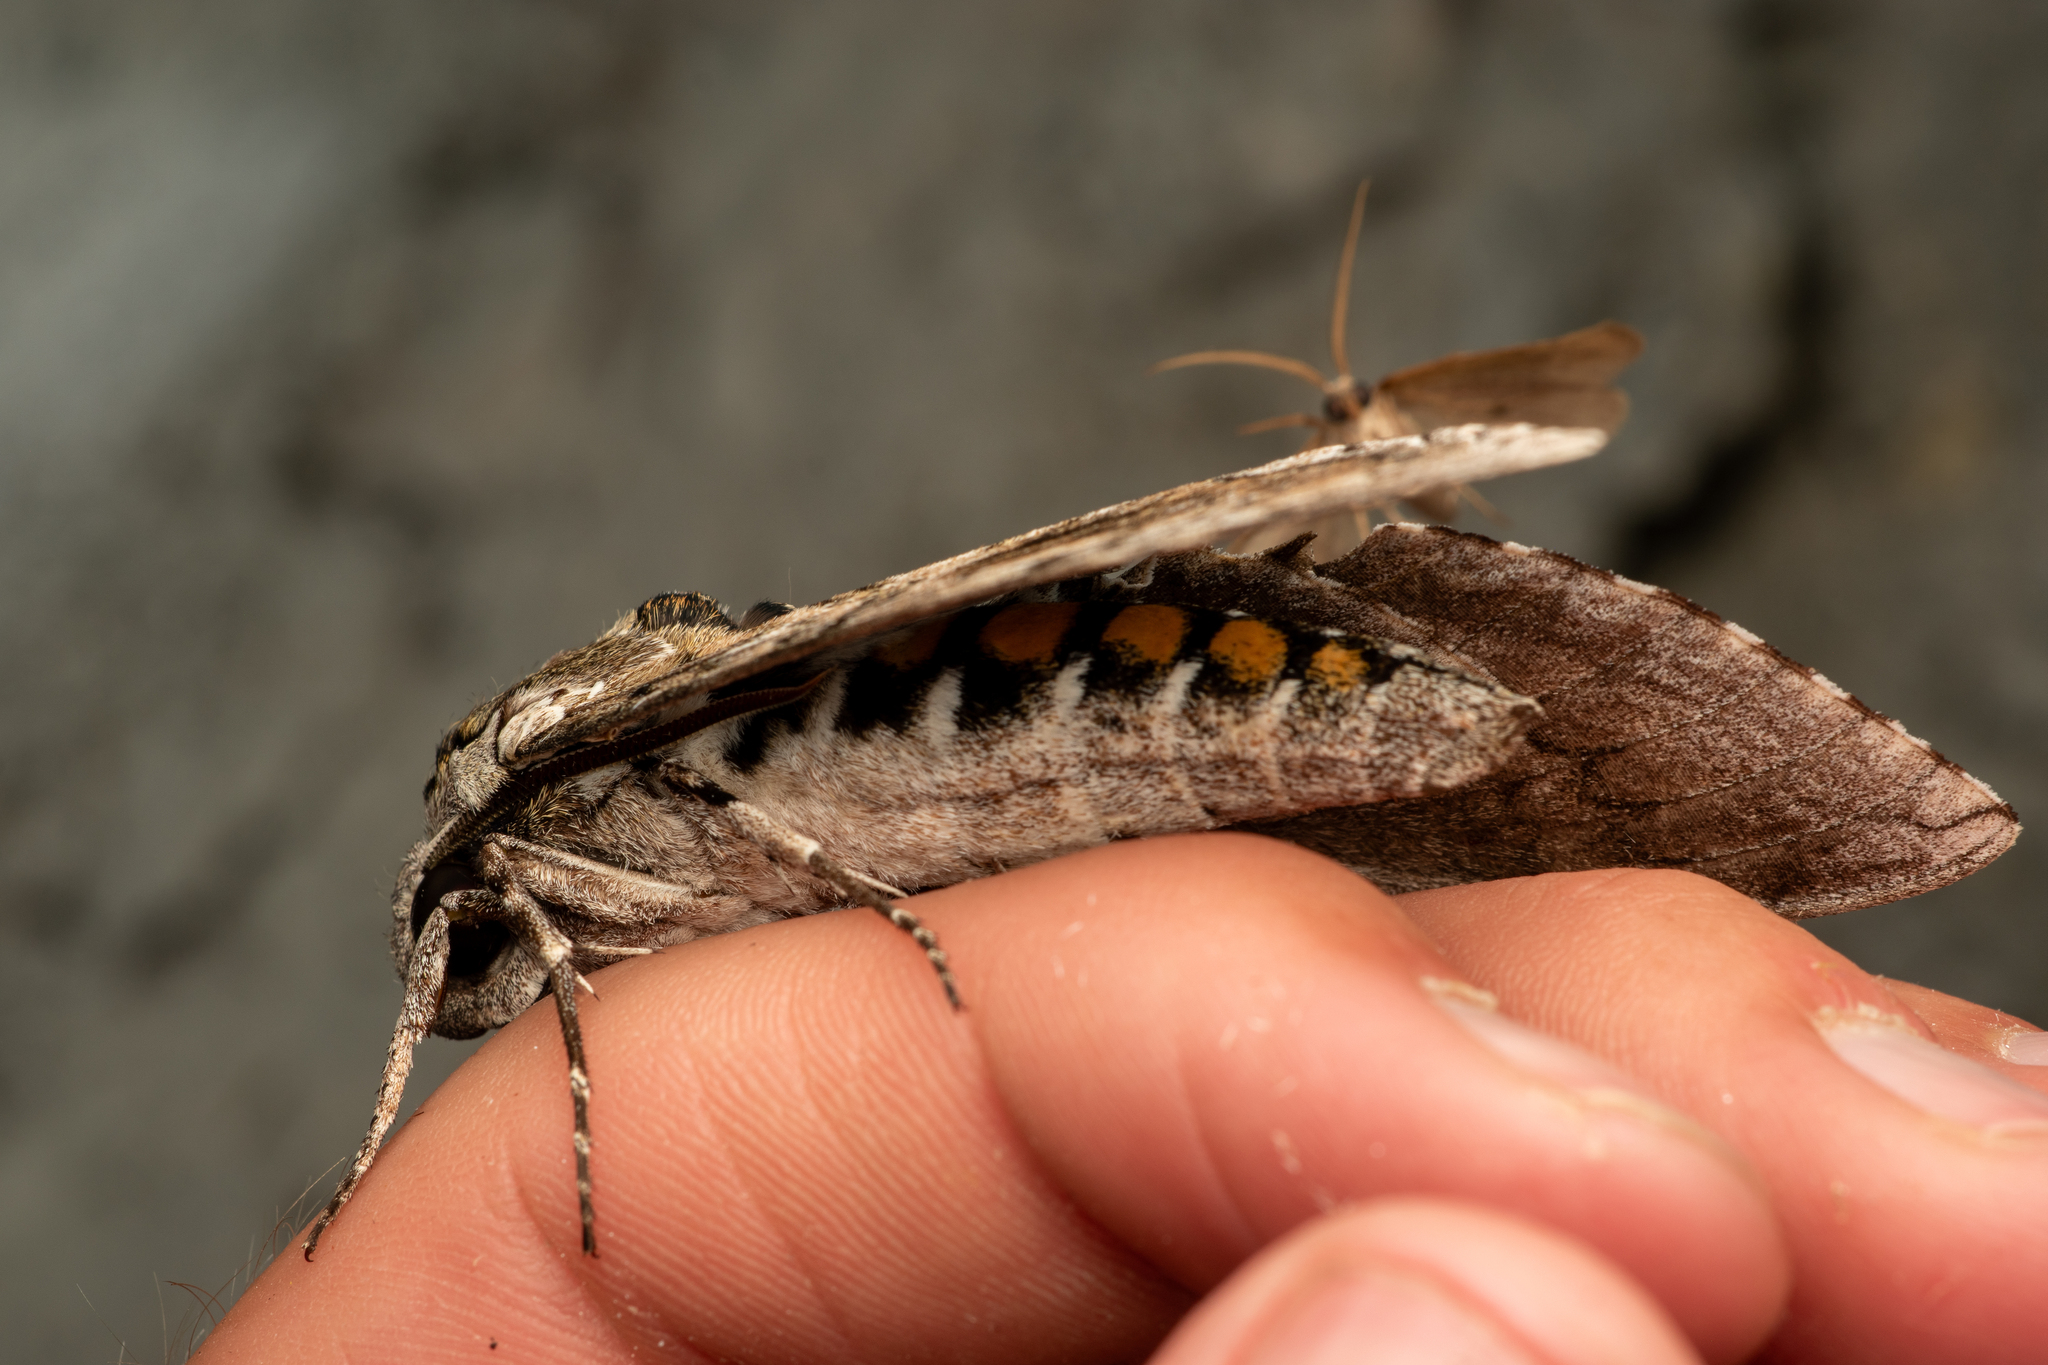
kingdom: Animalia
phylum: Arthropoda
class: Insecta
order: Lepidoptera
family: Sphingidae
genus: Manduca
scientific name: Manduca sexta
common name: Carolina sphinx
